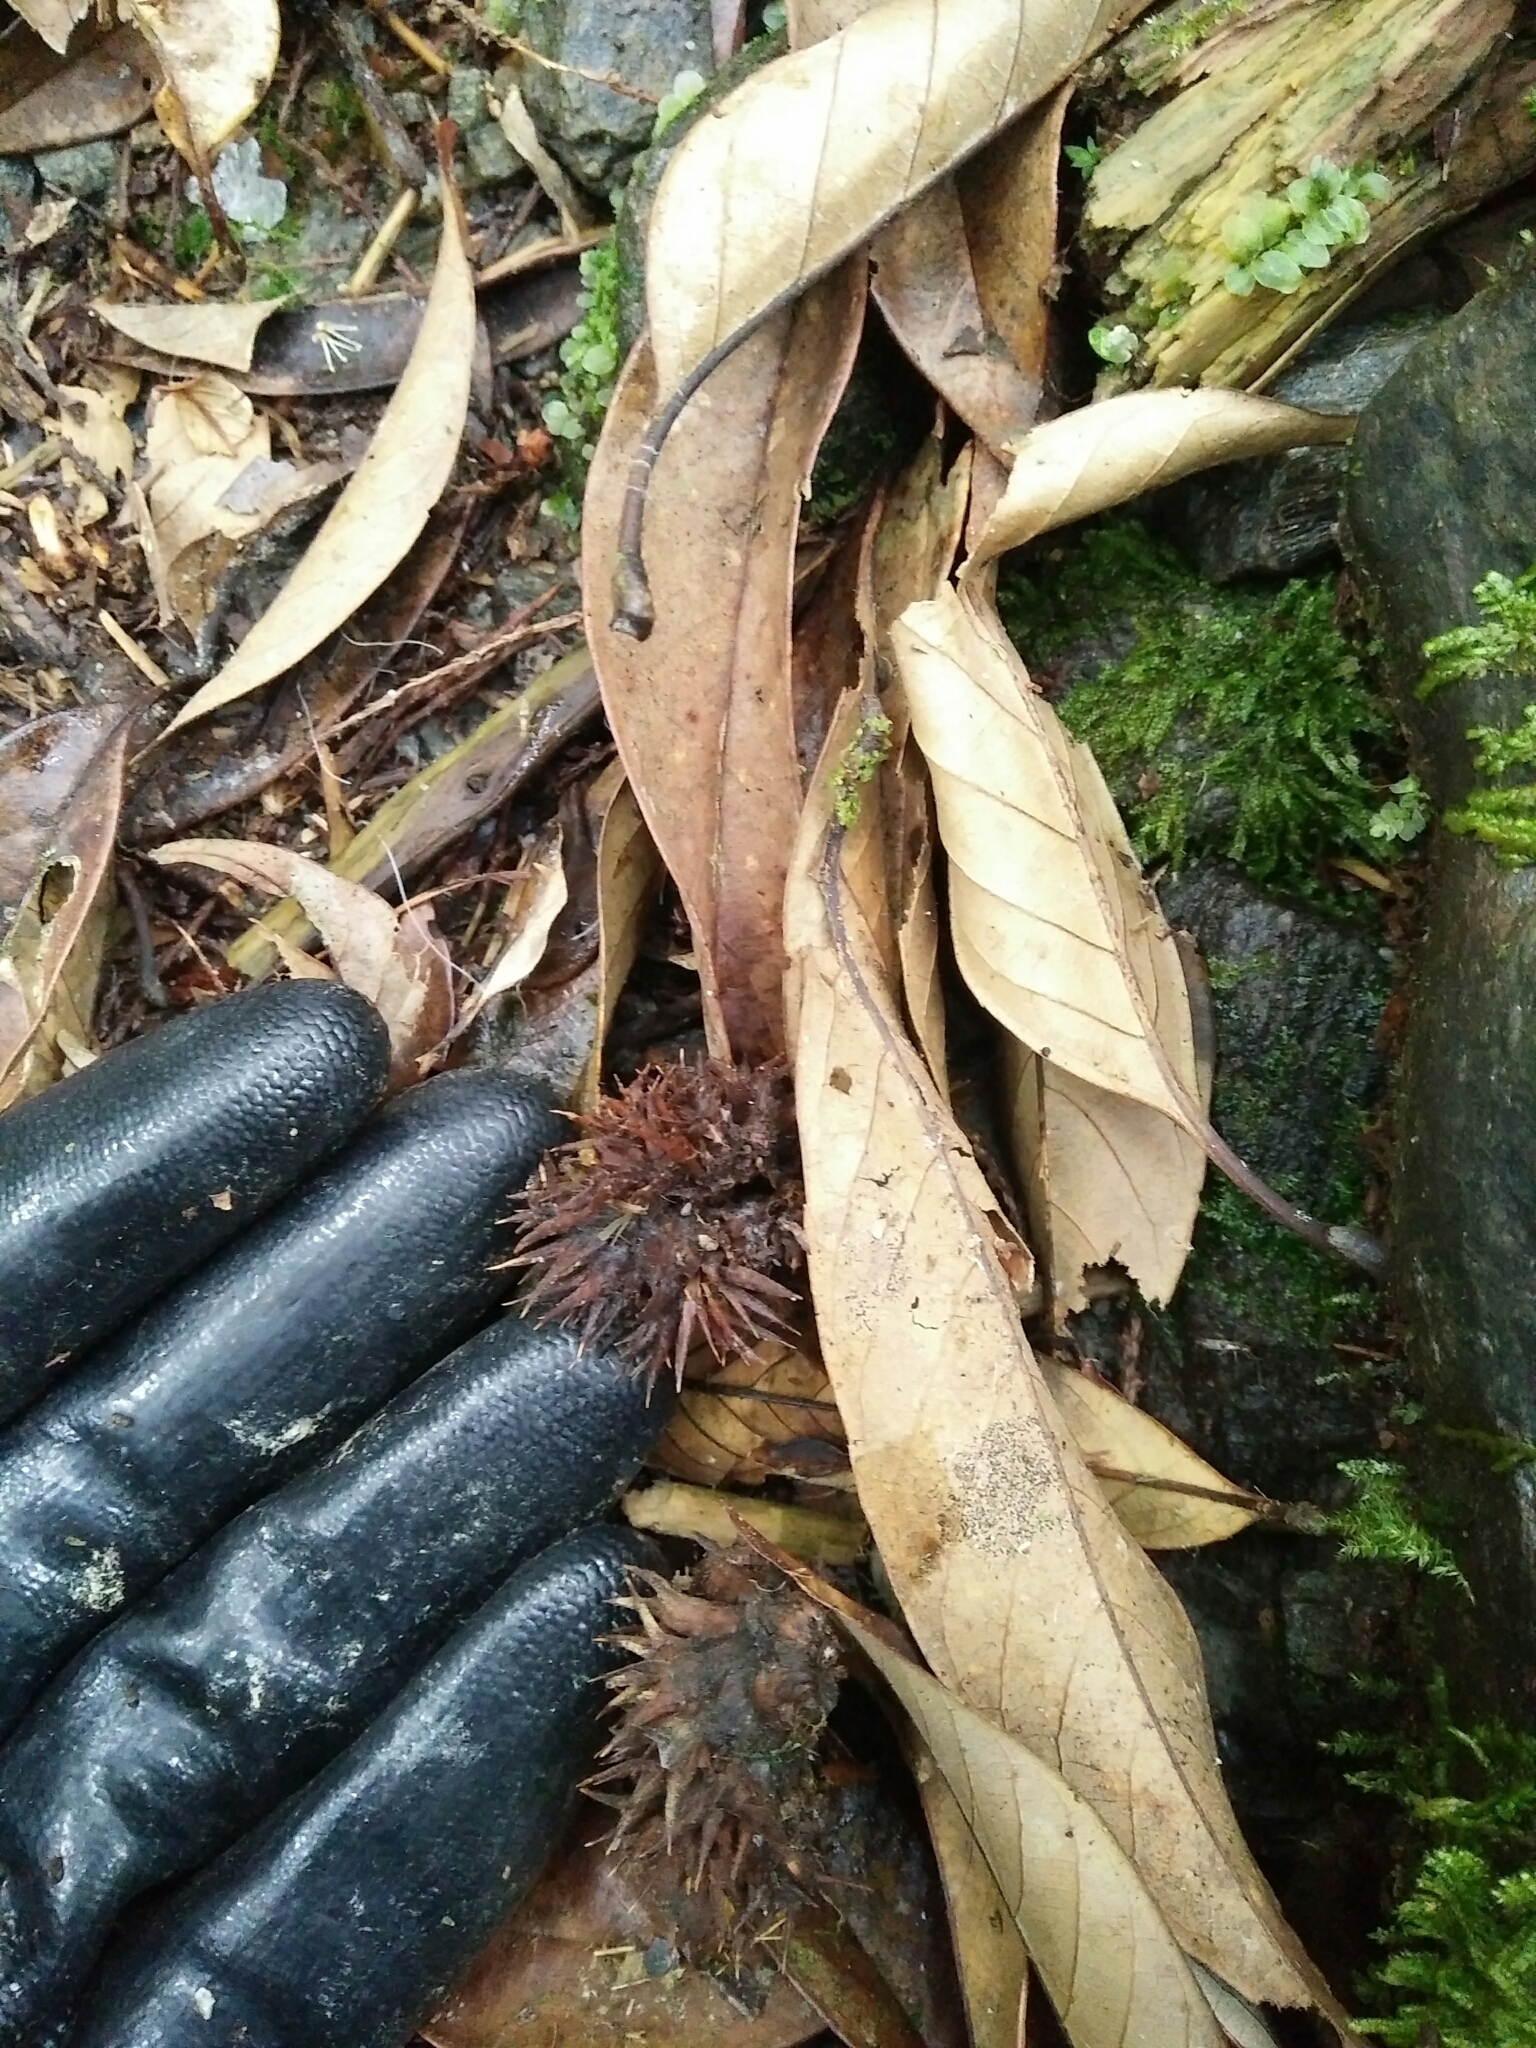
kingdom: Plantae
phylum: Tracheophyta
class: Magnoliopsida
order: Fagales
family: Fagaceae
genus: Castanopsis
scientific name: Castanopsis faberi
